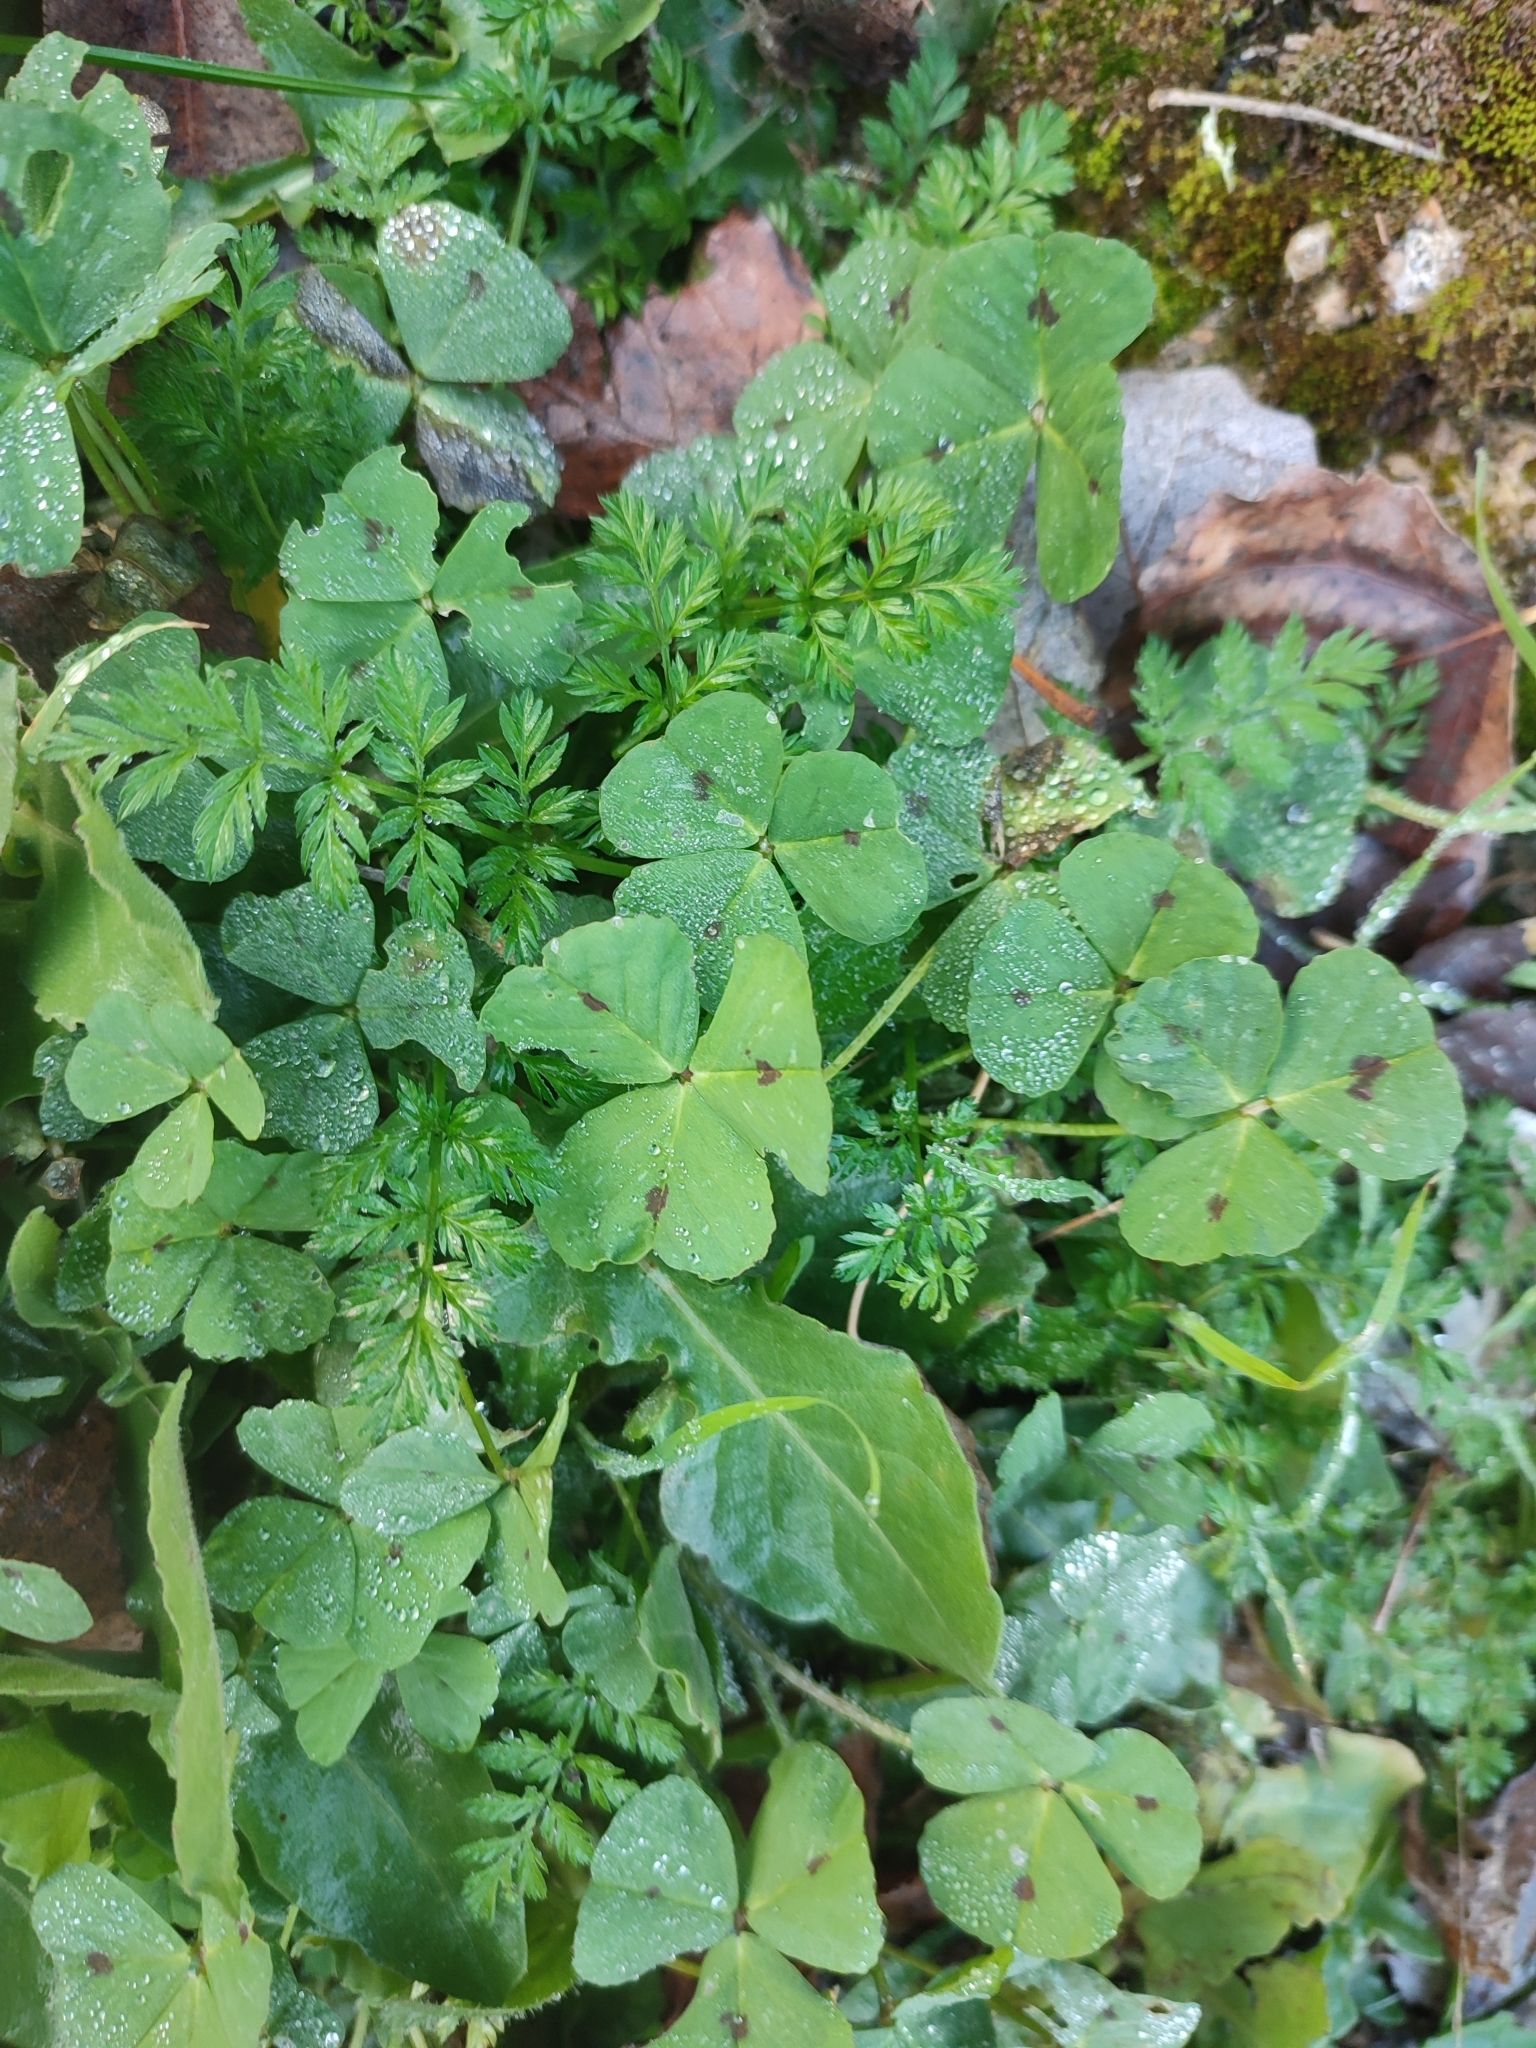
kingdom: Plantae
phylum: Tracheophyta
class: Magnoliopsida
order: Fabales
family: Fabaceae
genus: Medicago
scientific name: Medicago arabica
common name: Spotted medick
